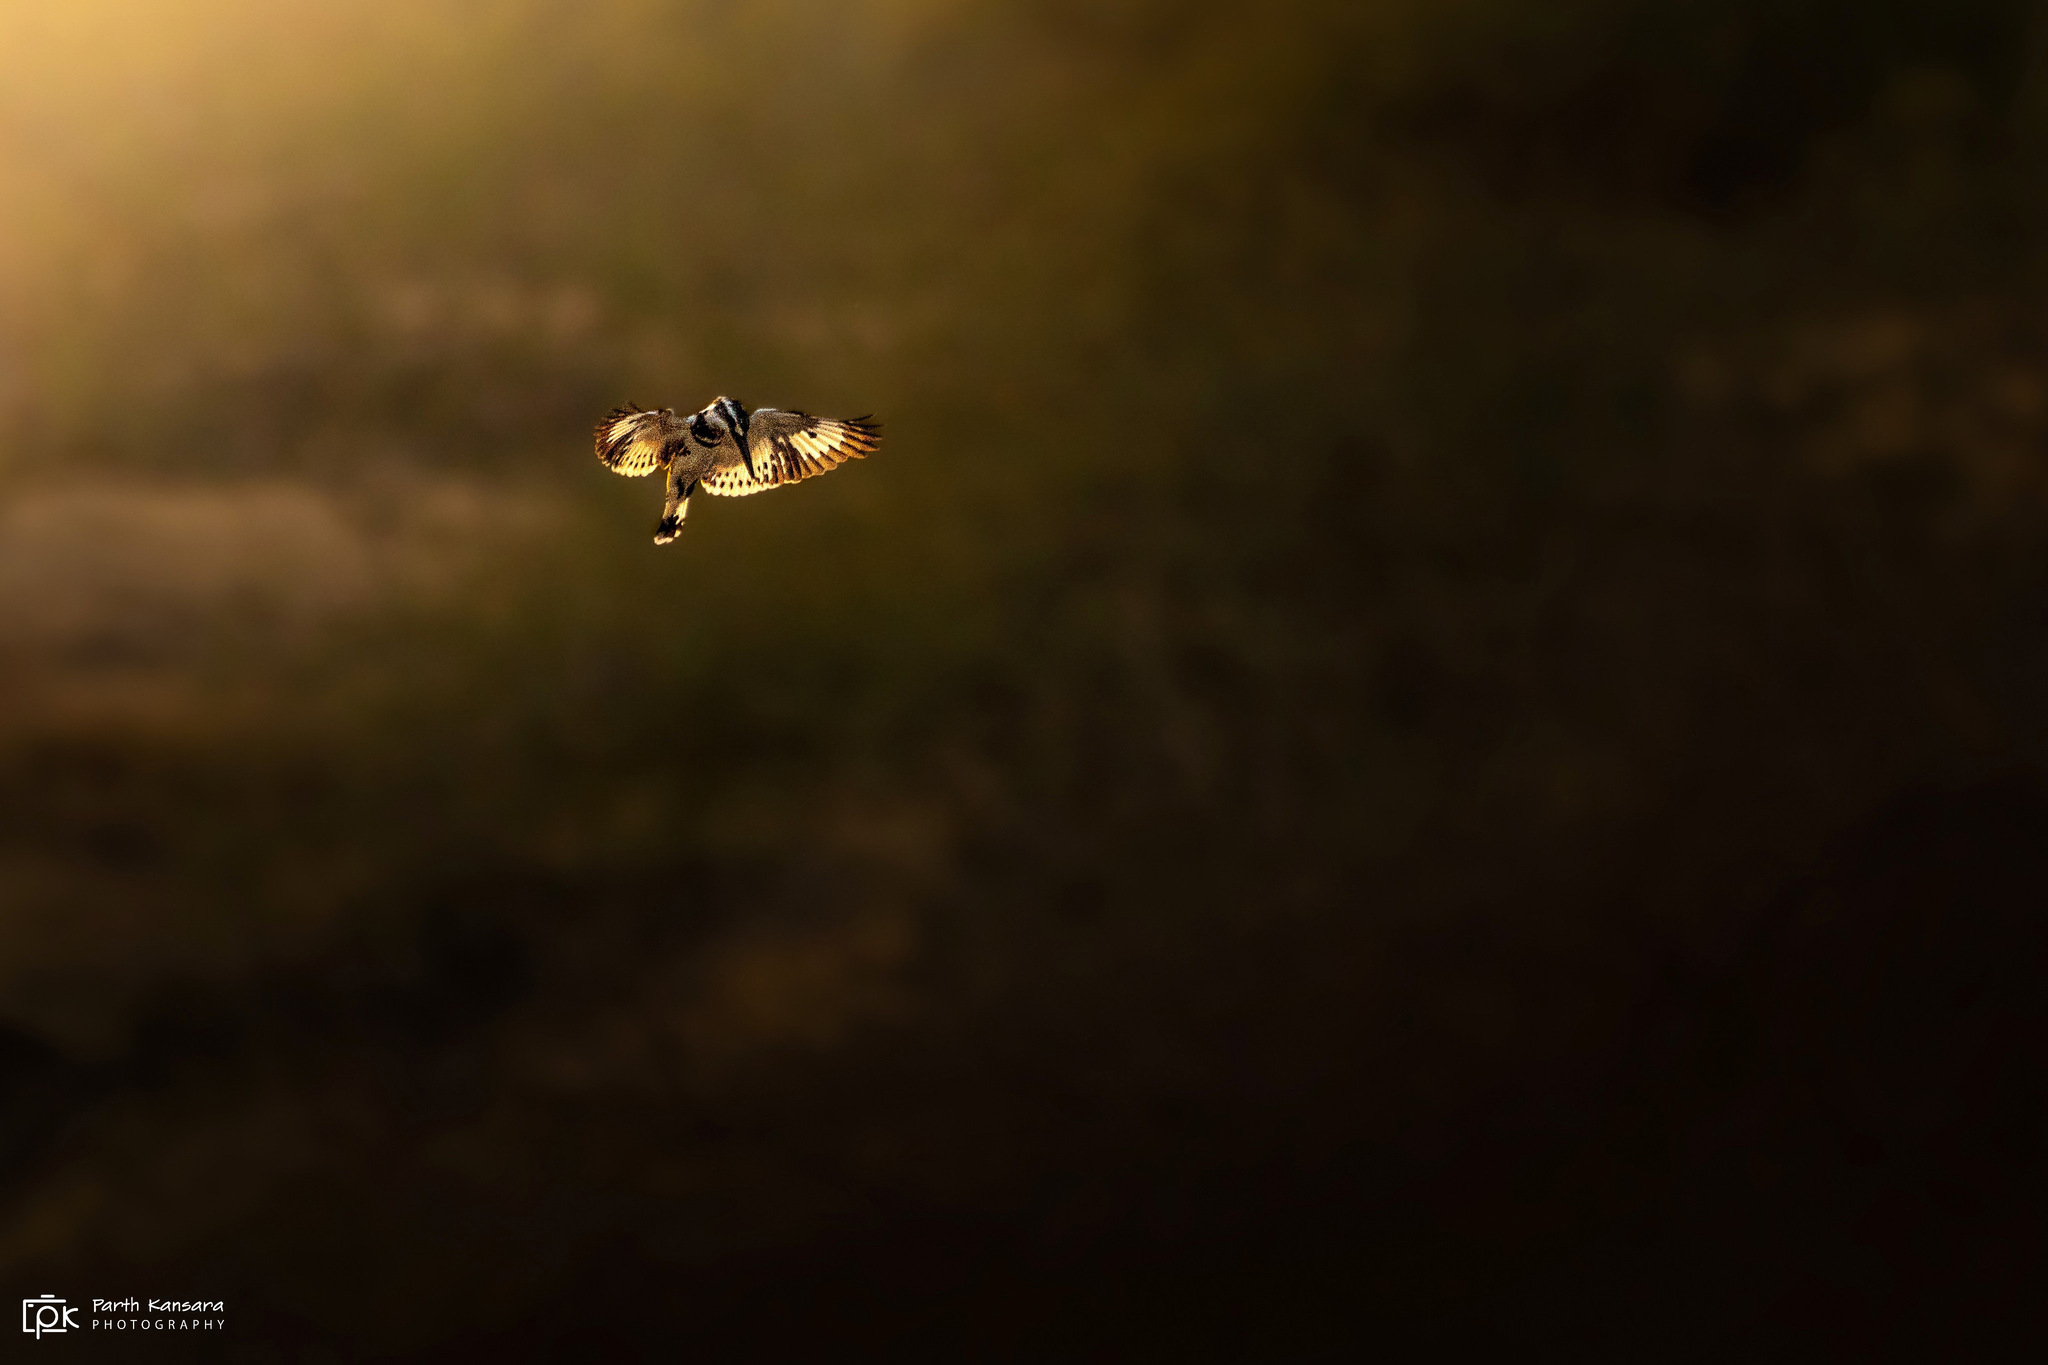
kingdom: Animalia
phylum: Chordata
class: Aves
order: Coraciiformes
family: Alcedinidae
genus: Ceryle
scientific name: Ceryle rudis
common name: Pied kingfisher
